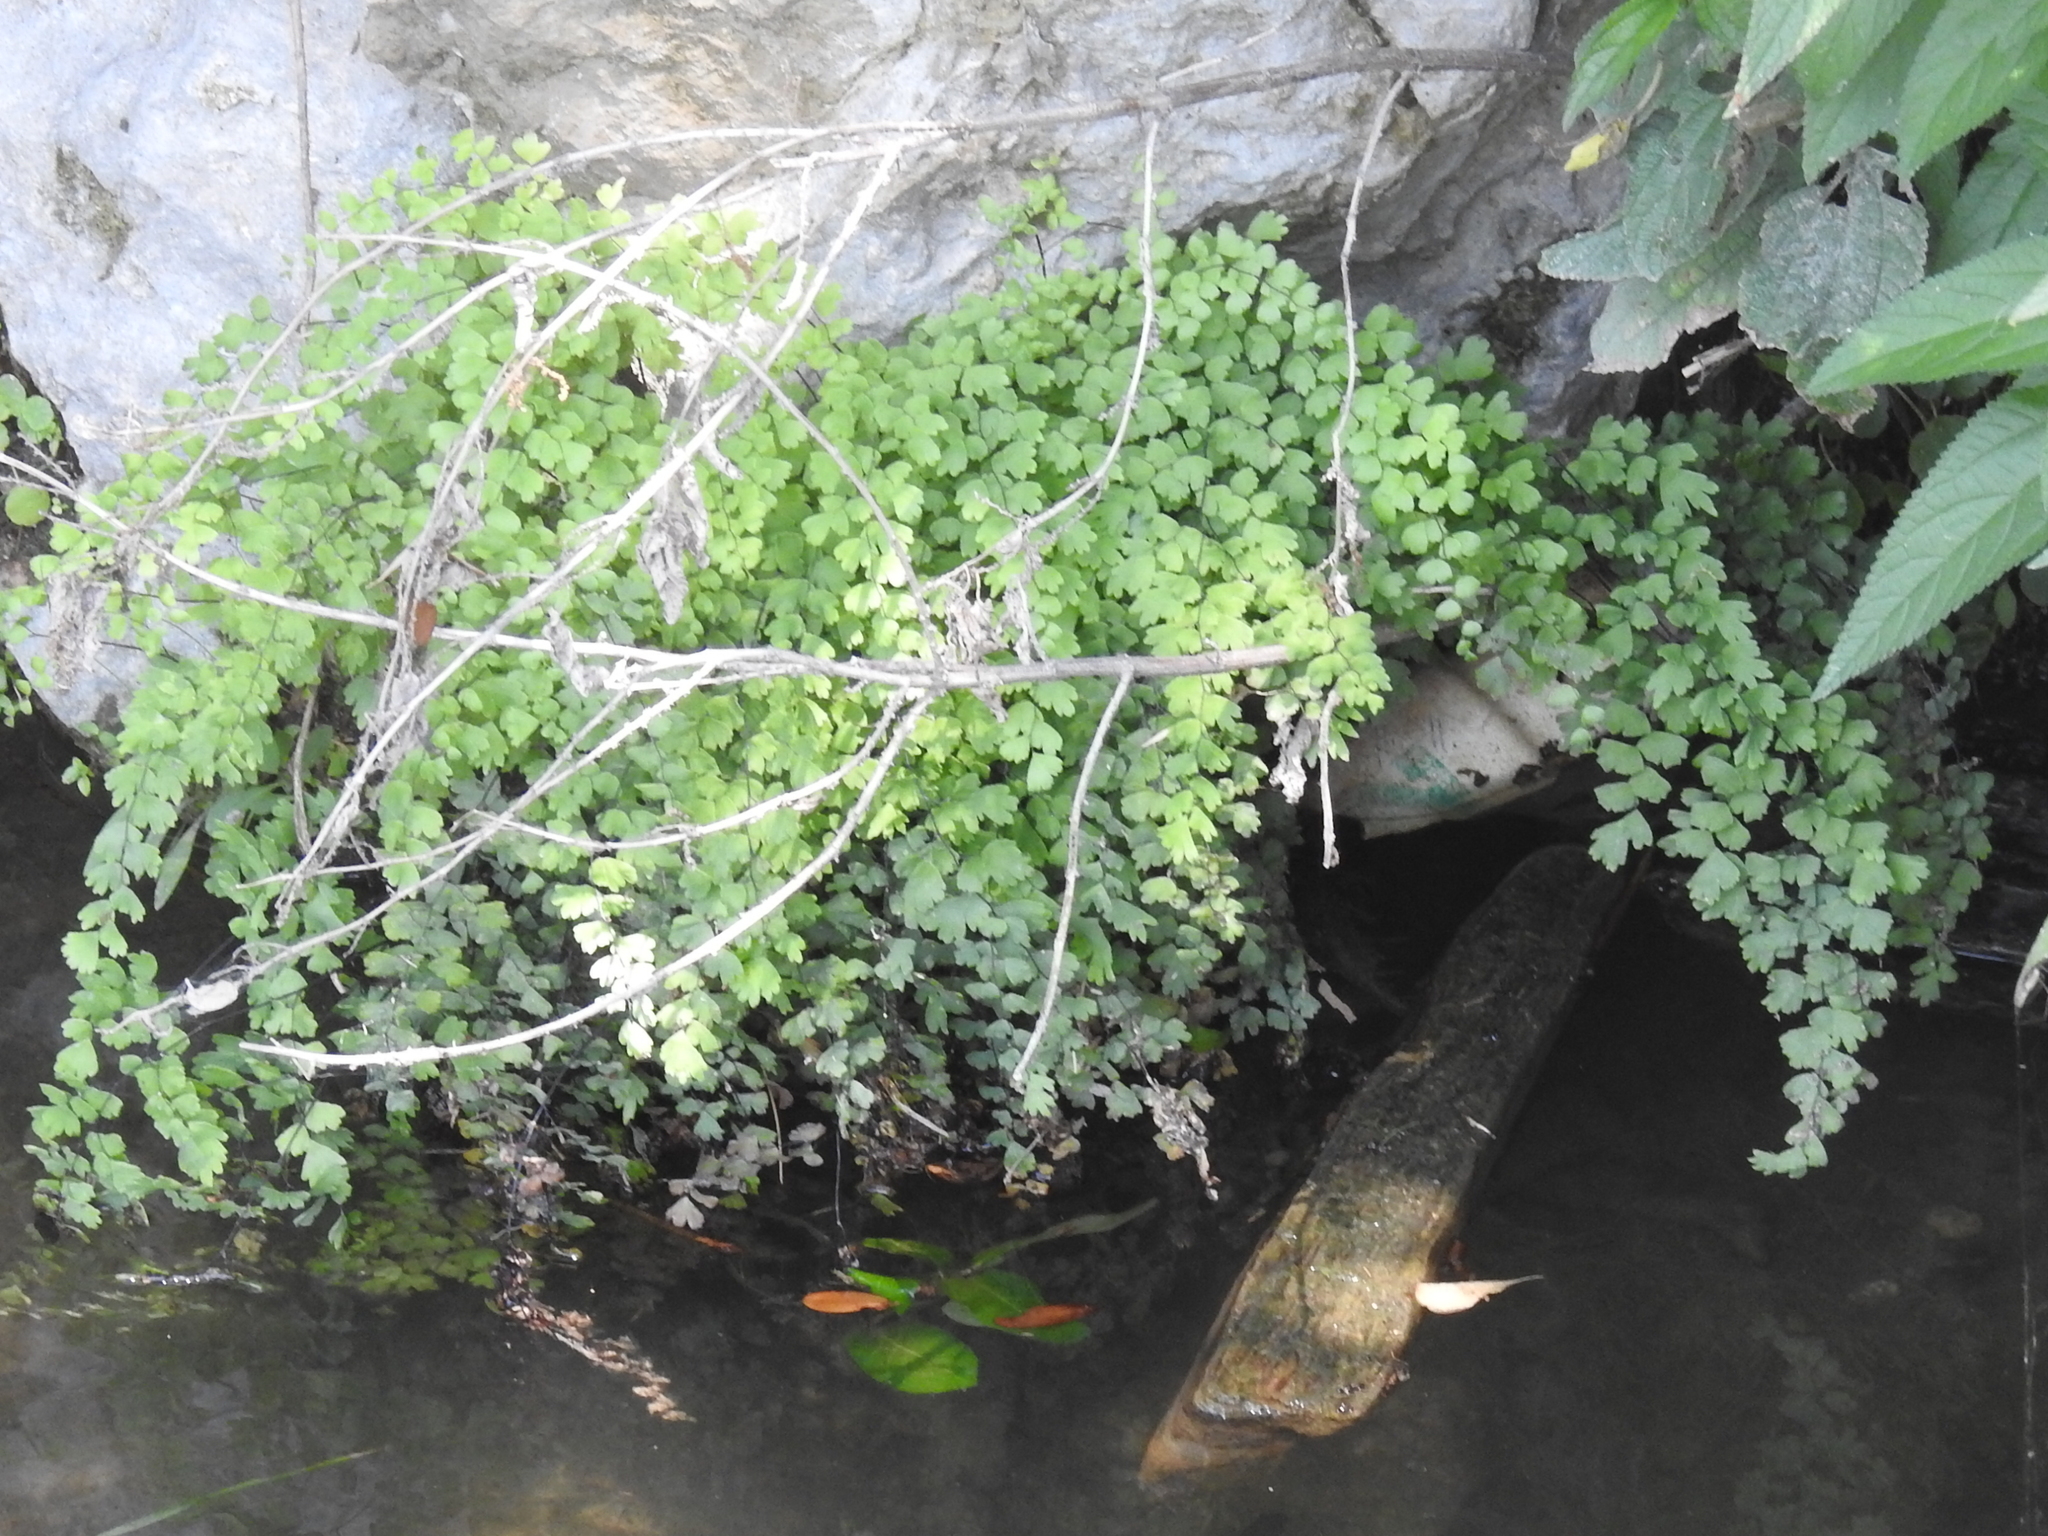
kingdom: Plantae
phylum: Tracheophyta
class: Polypodiopsida
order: Polypodiales
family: Pteridaceae
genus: Adiantum
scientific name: Adiantum capillus-veneris
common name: Maidenhair fern
